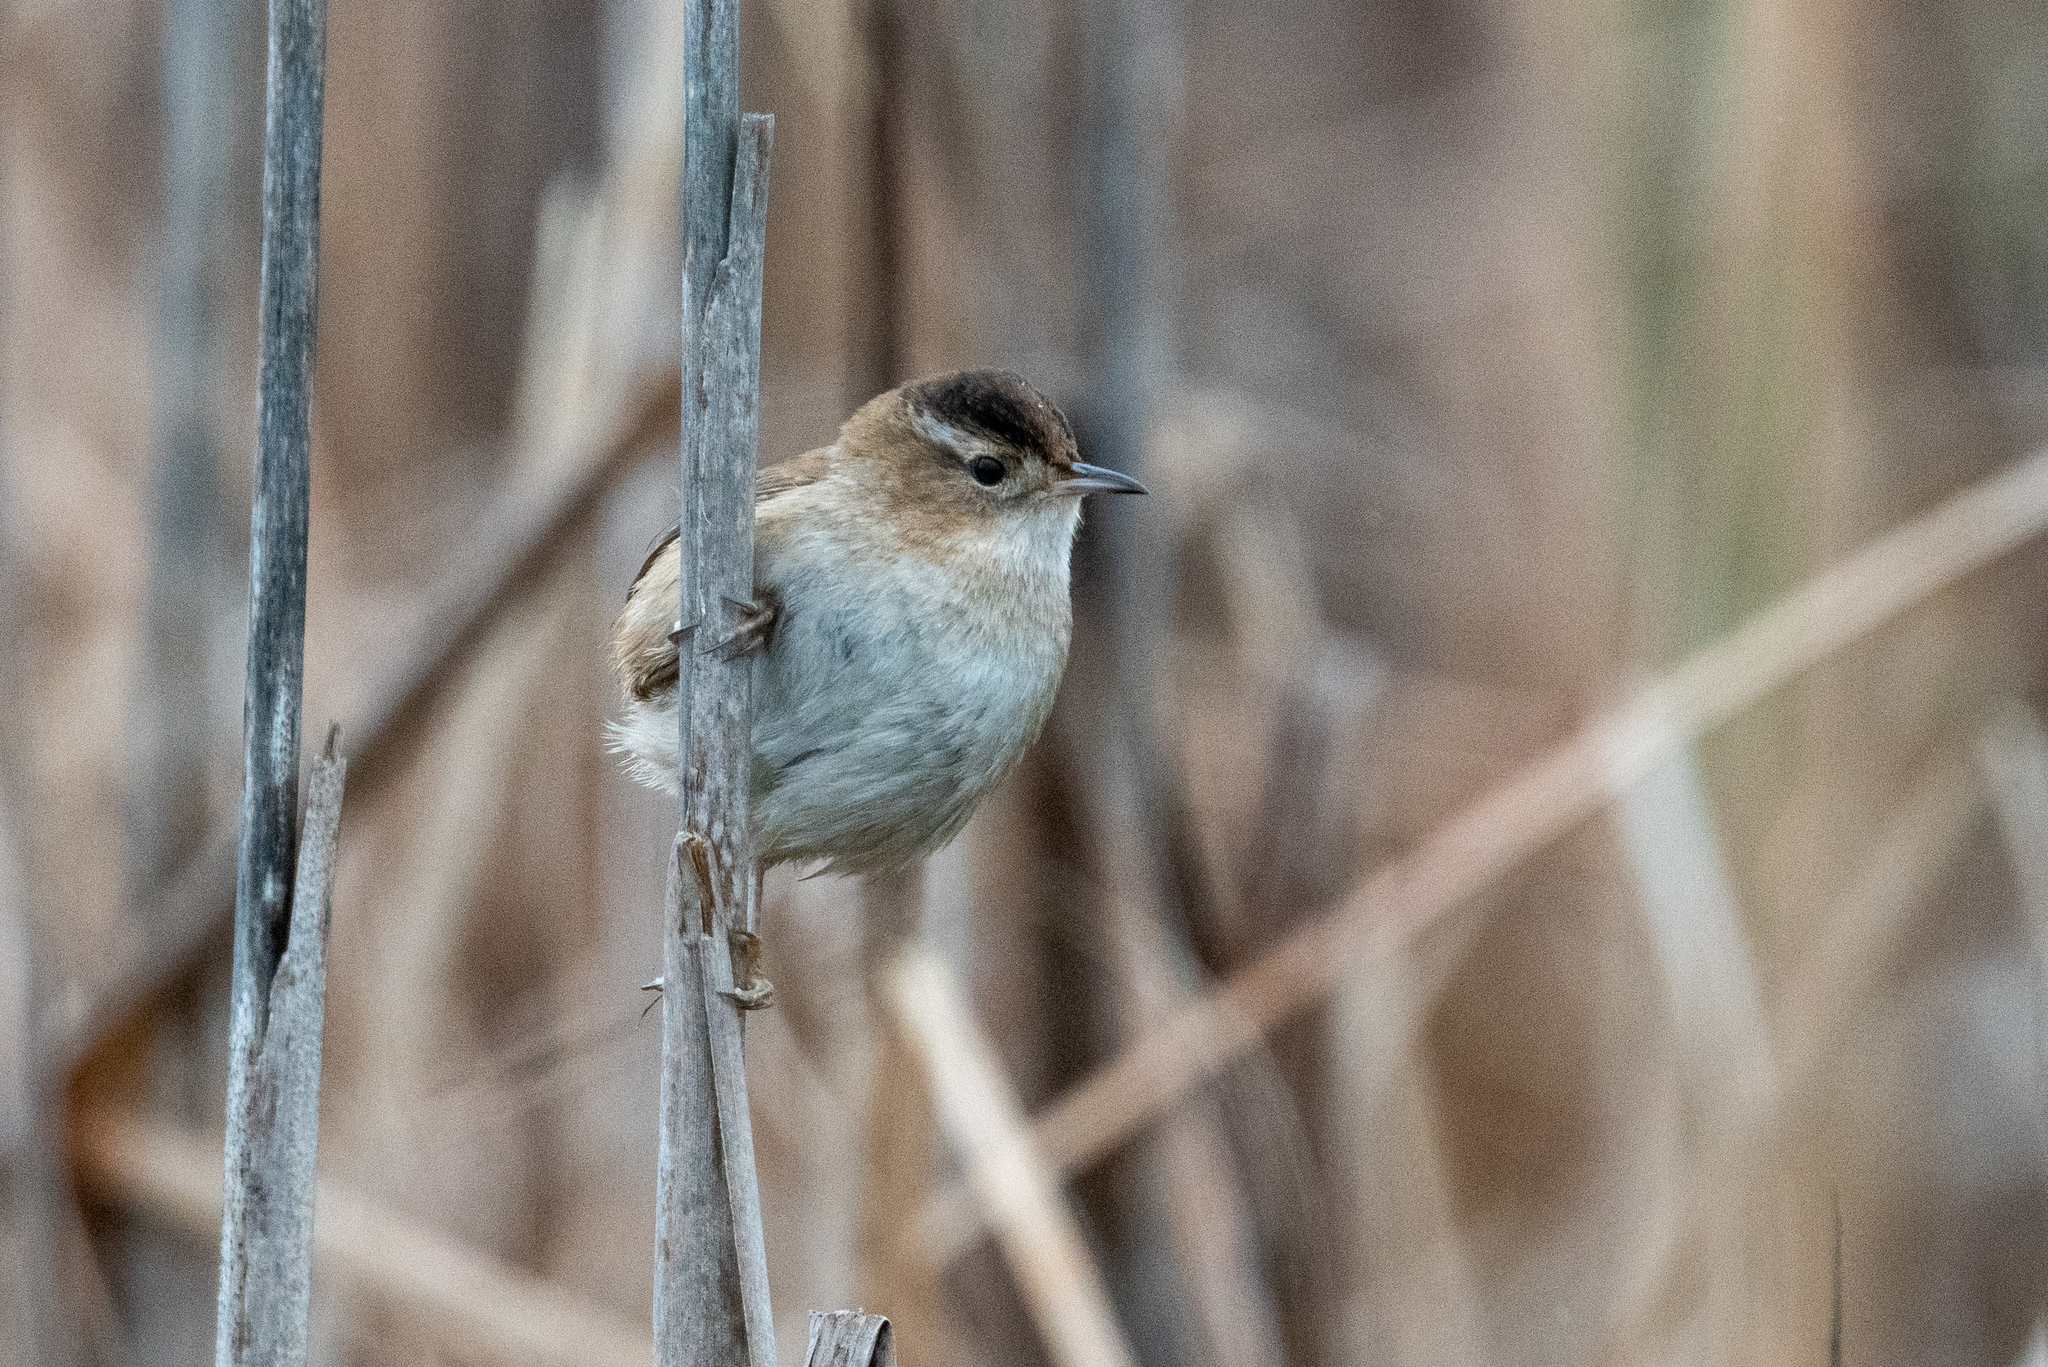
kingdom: Animalia
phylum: Chordata
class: Aves
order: Passeriformes
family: Troglodytidae
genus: Cistothorus
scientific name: Cistothorus palustris
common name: Marsh wren
